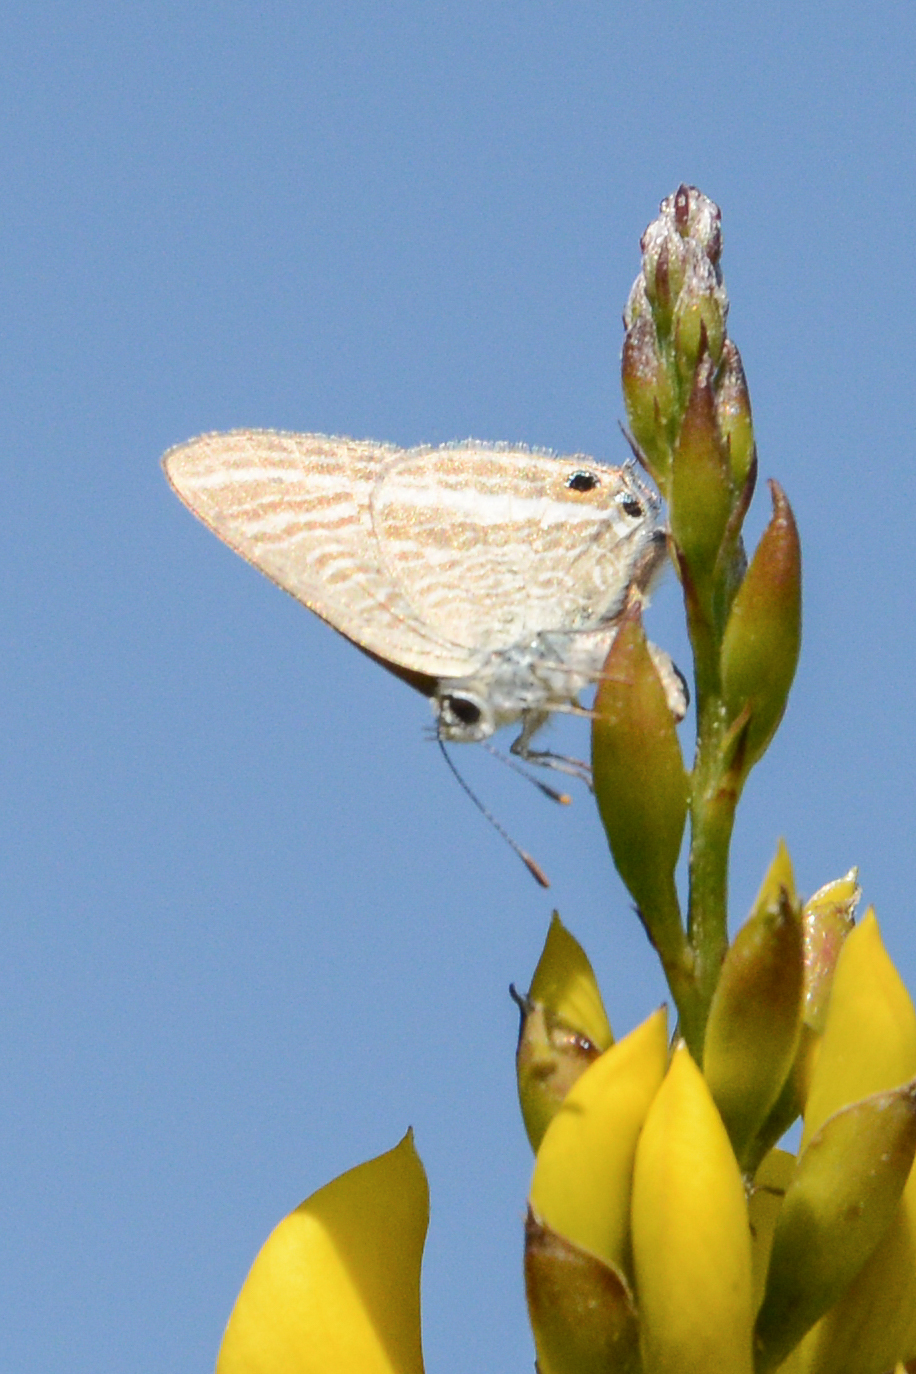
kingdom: Animalia
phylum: Arthropoda
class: Insecta
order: Lepidoptera
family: Lycaenidae
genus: Lampides
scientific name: Lampides boeticus
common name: Long-tailed blue
